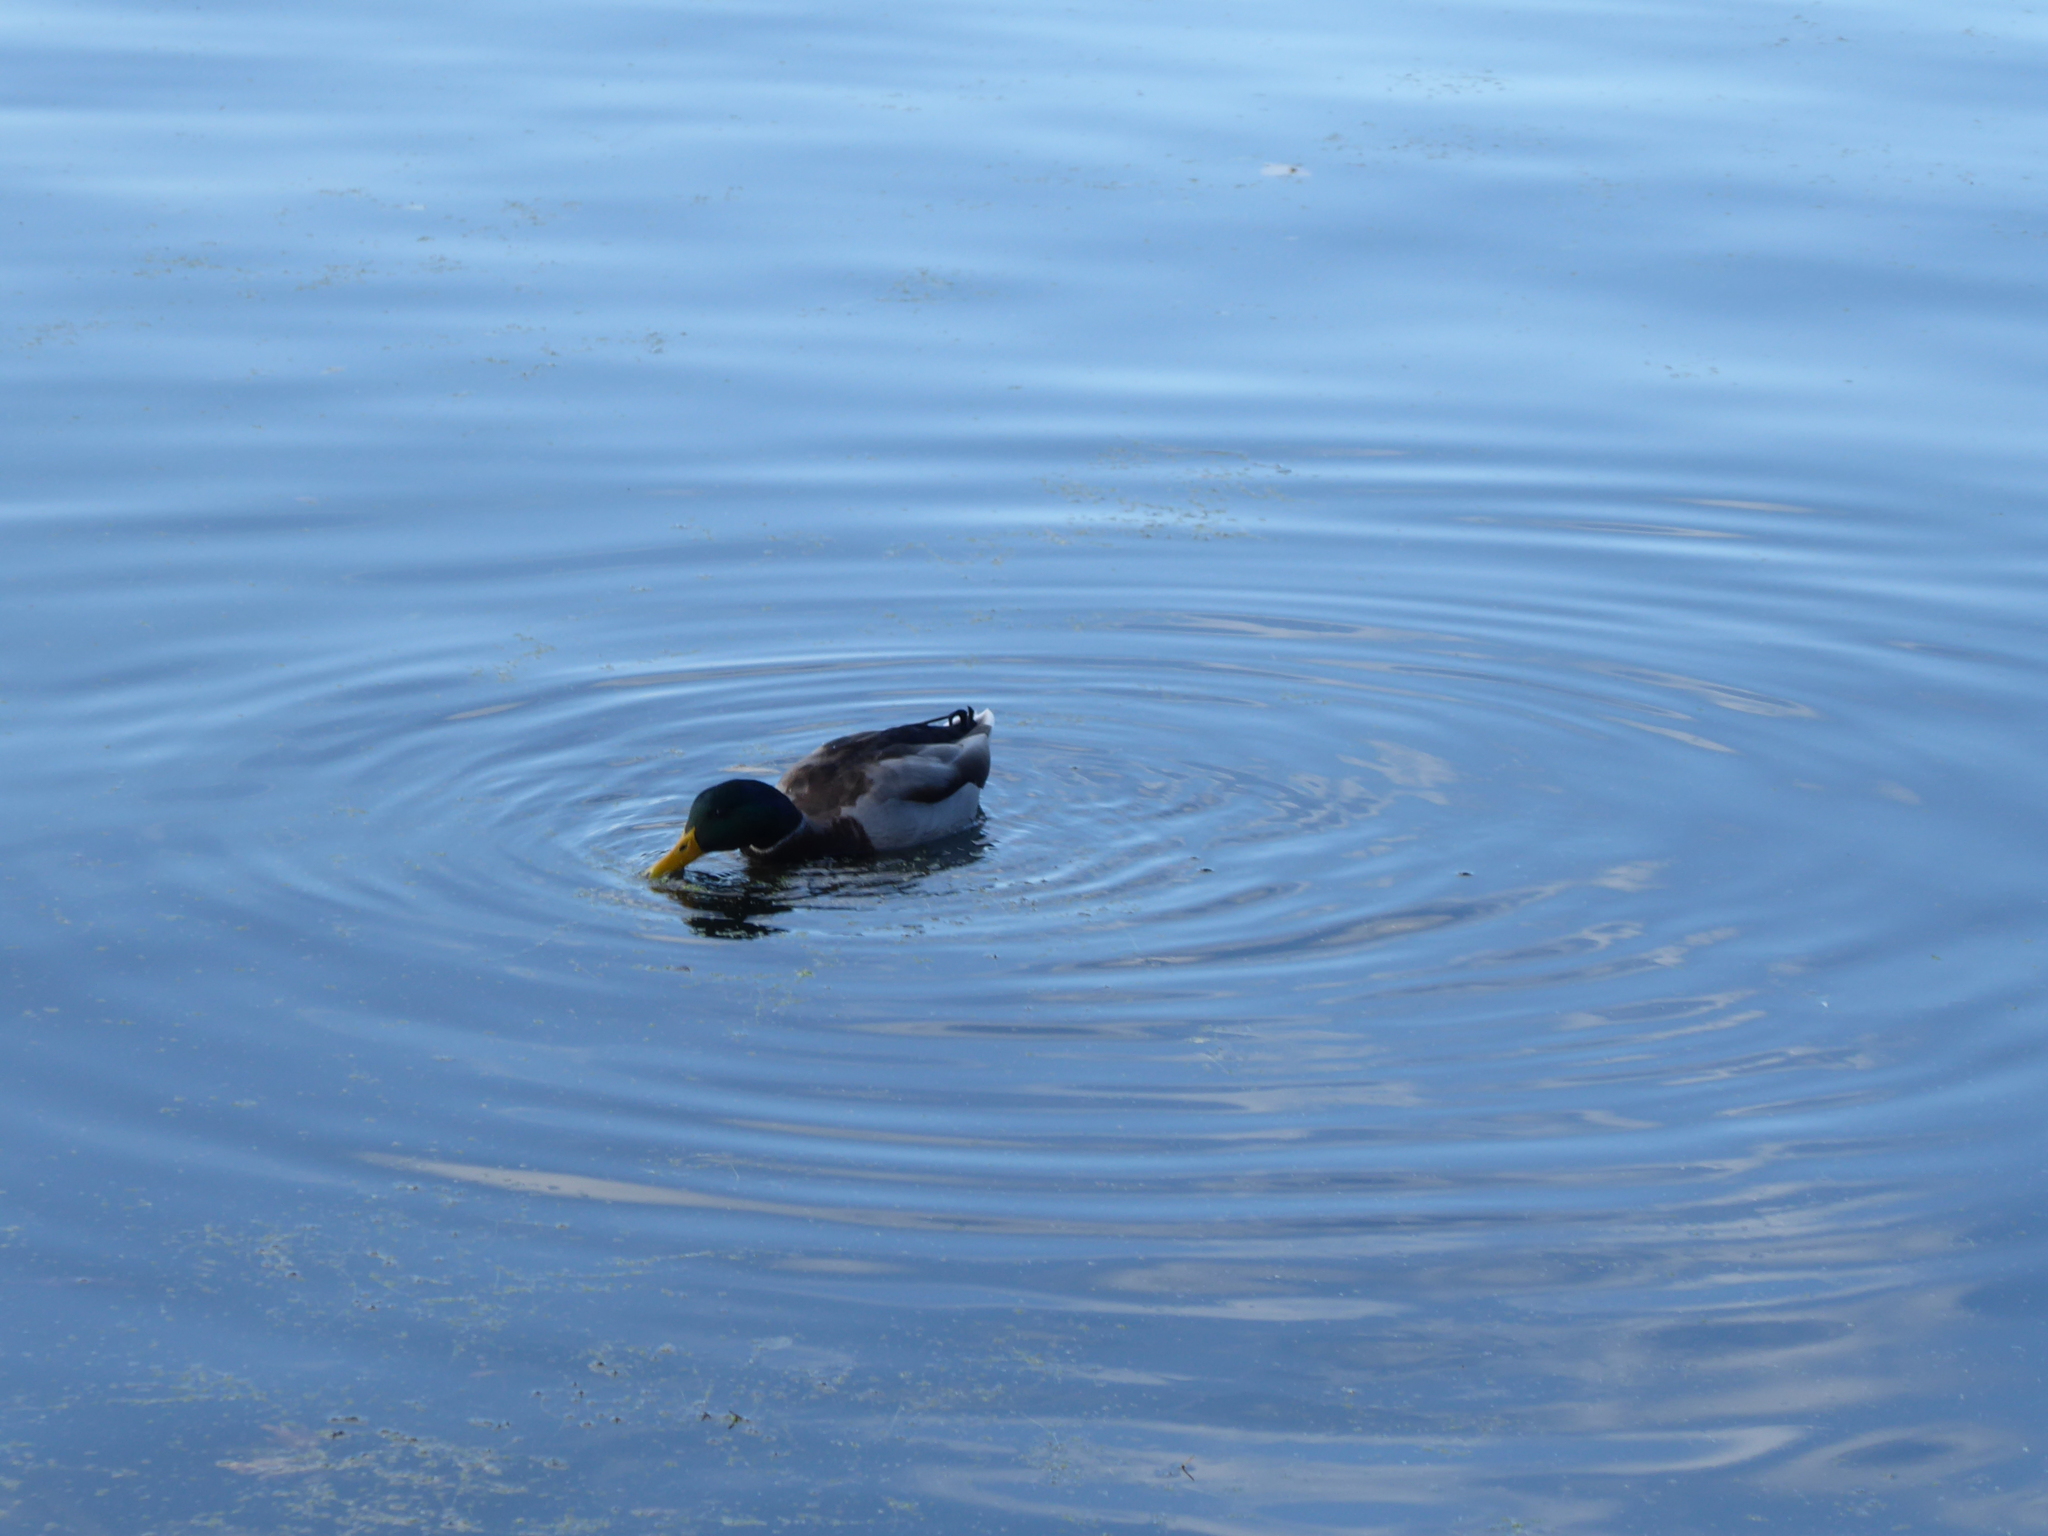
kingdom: Animalia
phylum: Chordata
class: Aves
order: Anseriformes
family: Anatidae
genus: Anas
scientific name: Anas platyrhynchos
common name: Mallard
